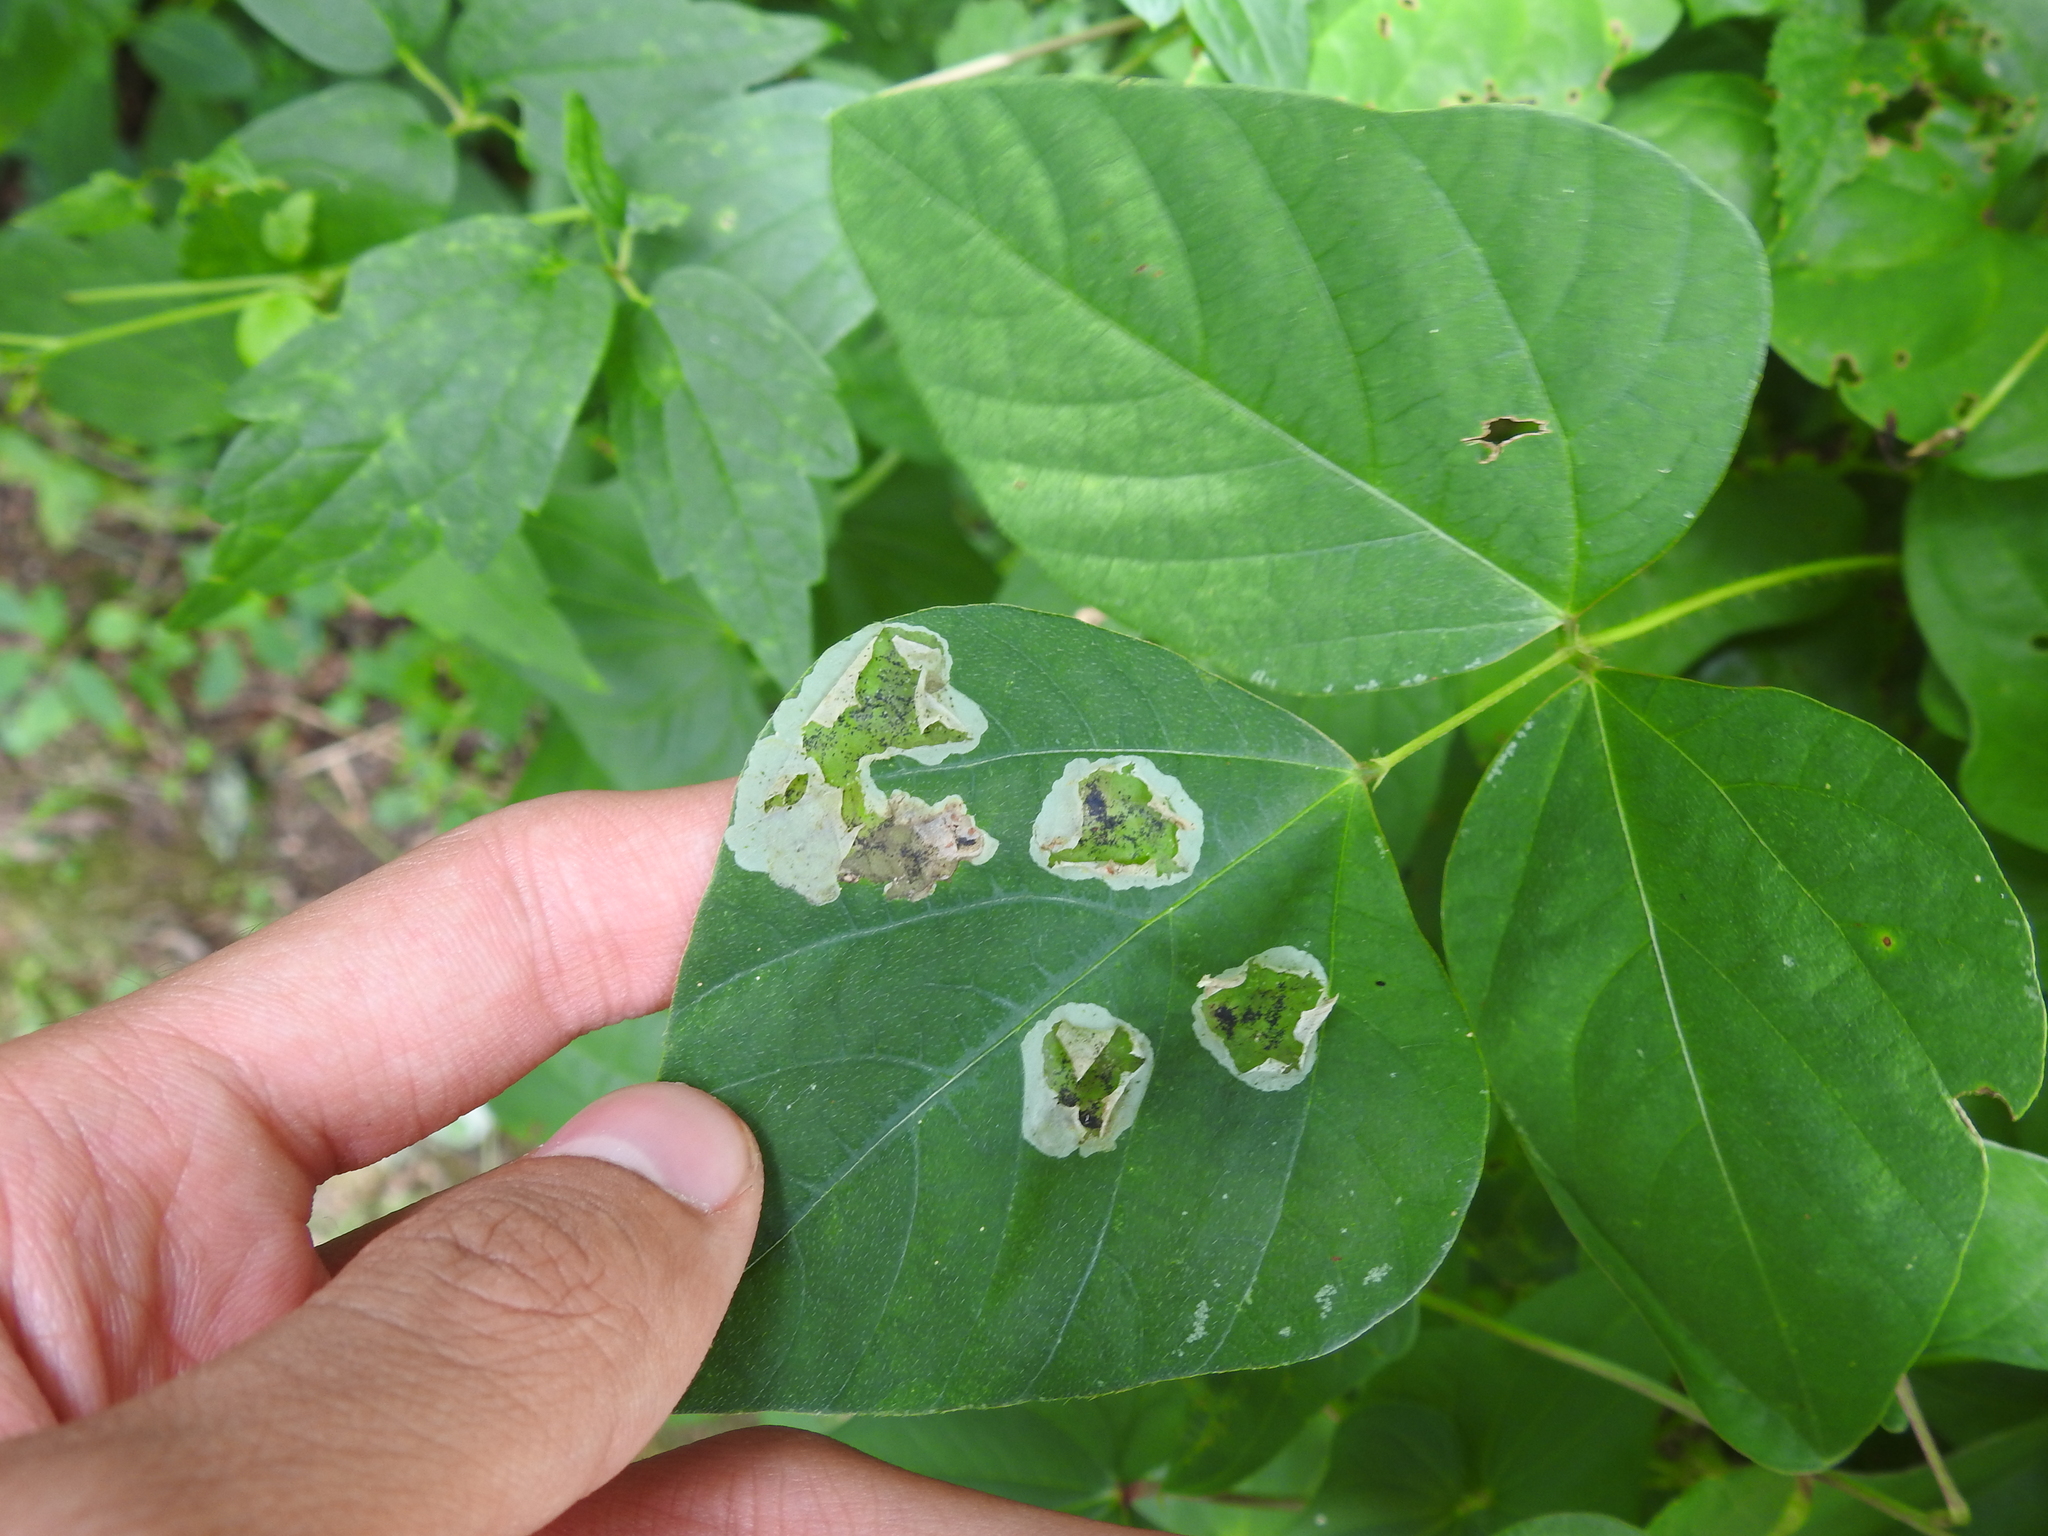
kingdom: Animalia
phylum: Arthropoda
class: Insecta
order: Lepidoptera
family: Gracillariidae
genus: Leucanthiza
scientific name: Leucanthiza amphicarpeaefoliella
